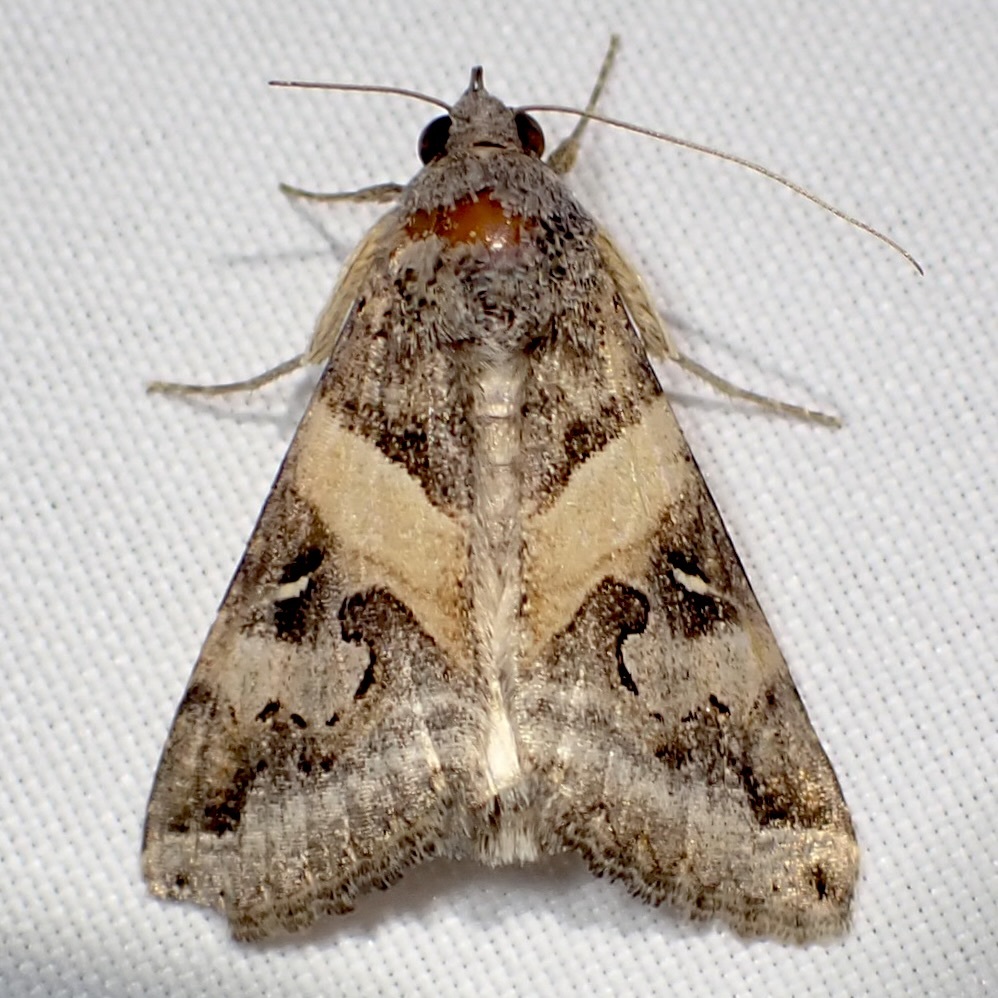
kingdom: Animalia
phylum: Arthropoda
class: Insecta
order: Lepidoptera
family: Erebidae
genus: Melipotis
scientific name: Melipotis indomita
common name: Moth
